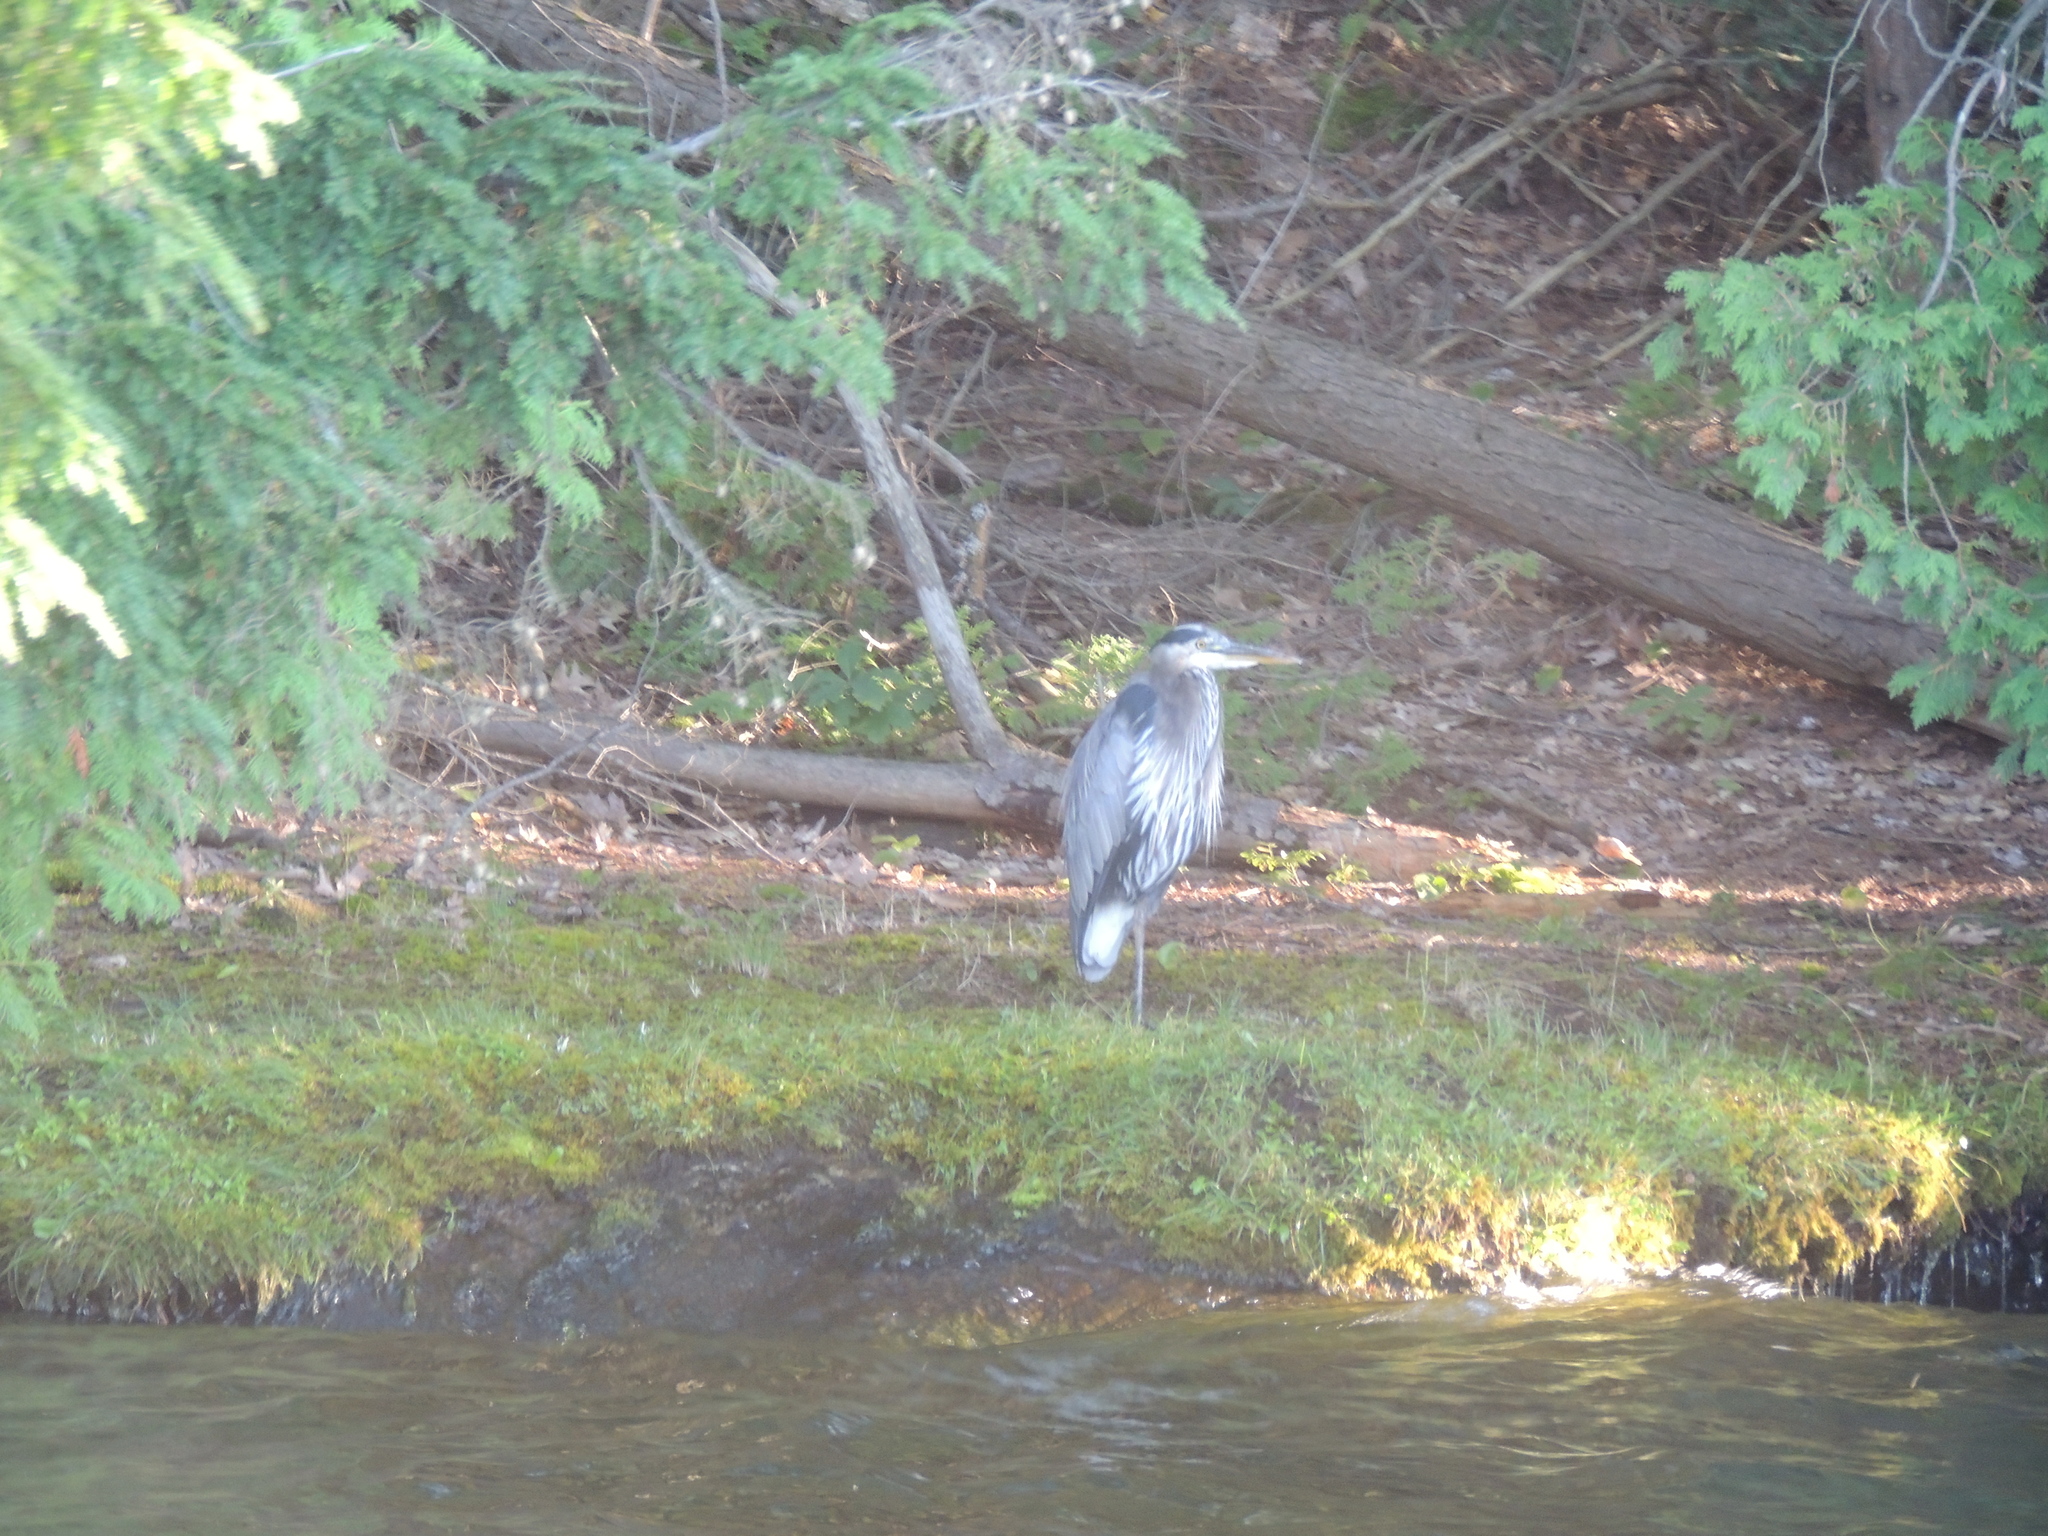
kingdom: Animalia
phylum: Chordata
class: Aves
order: Pelecaniformes
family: Ardeidae
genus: Ardea
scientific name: Ardea herodias
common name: Great blue heron
